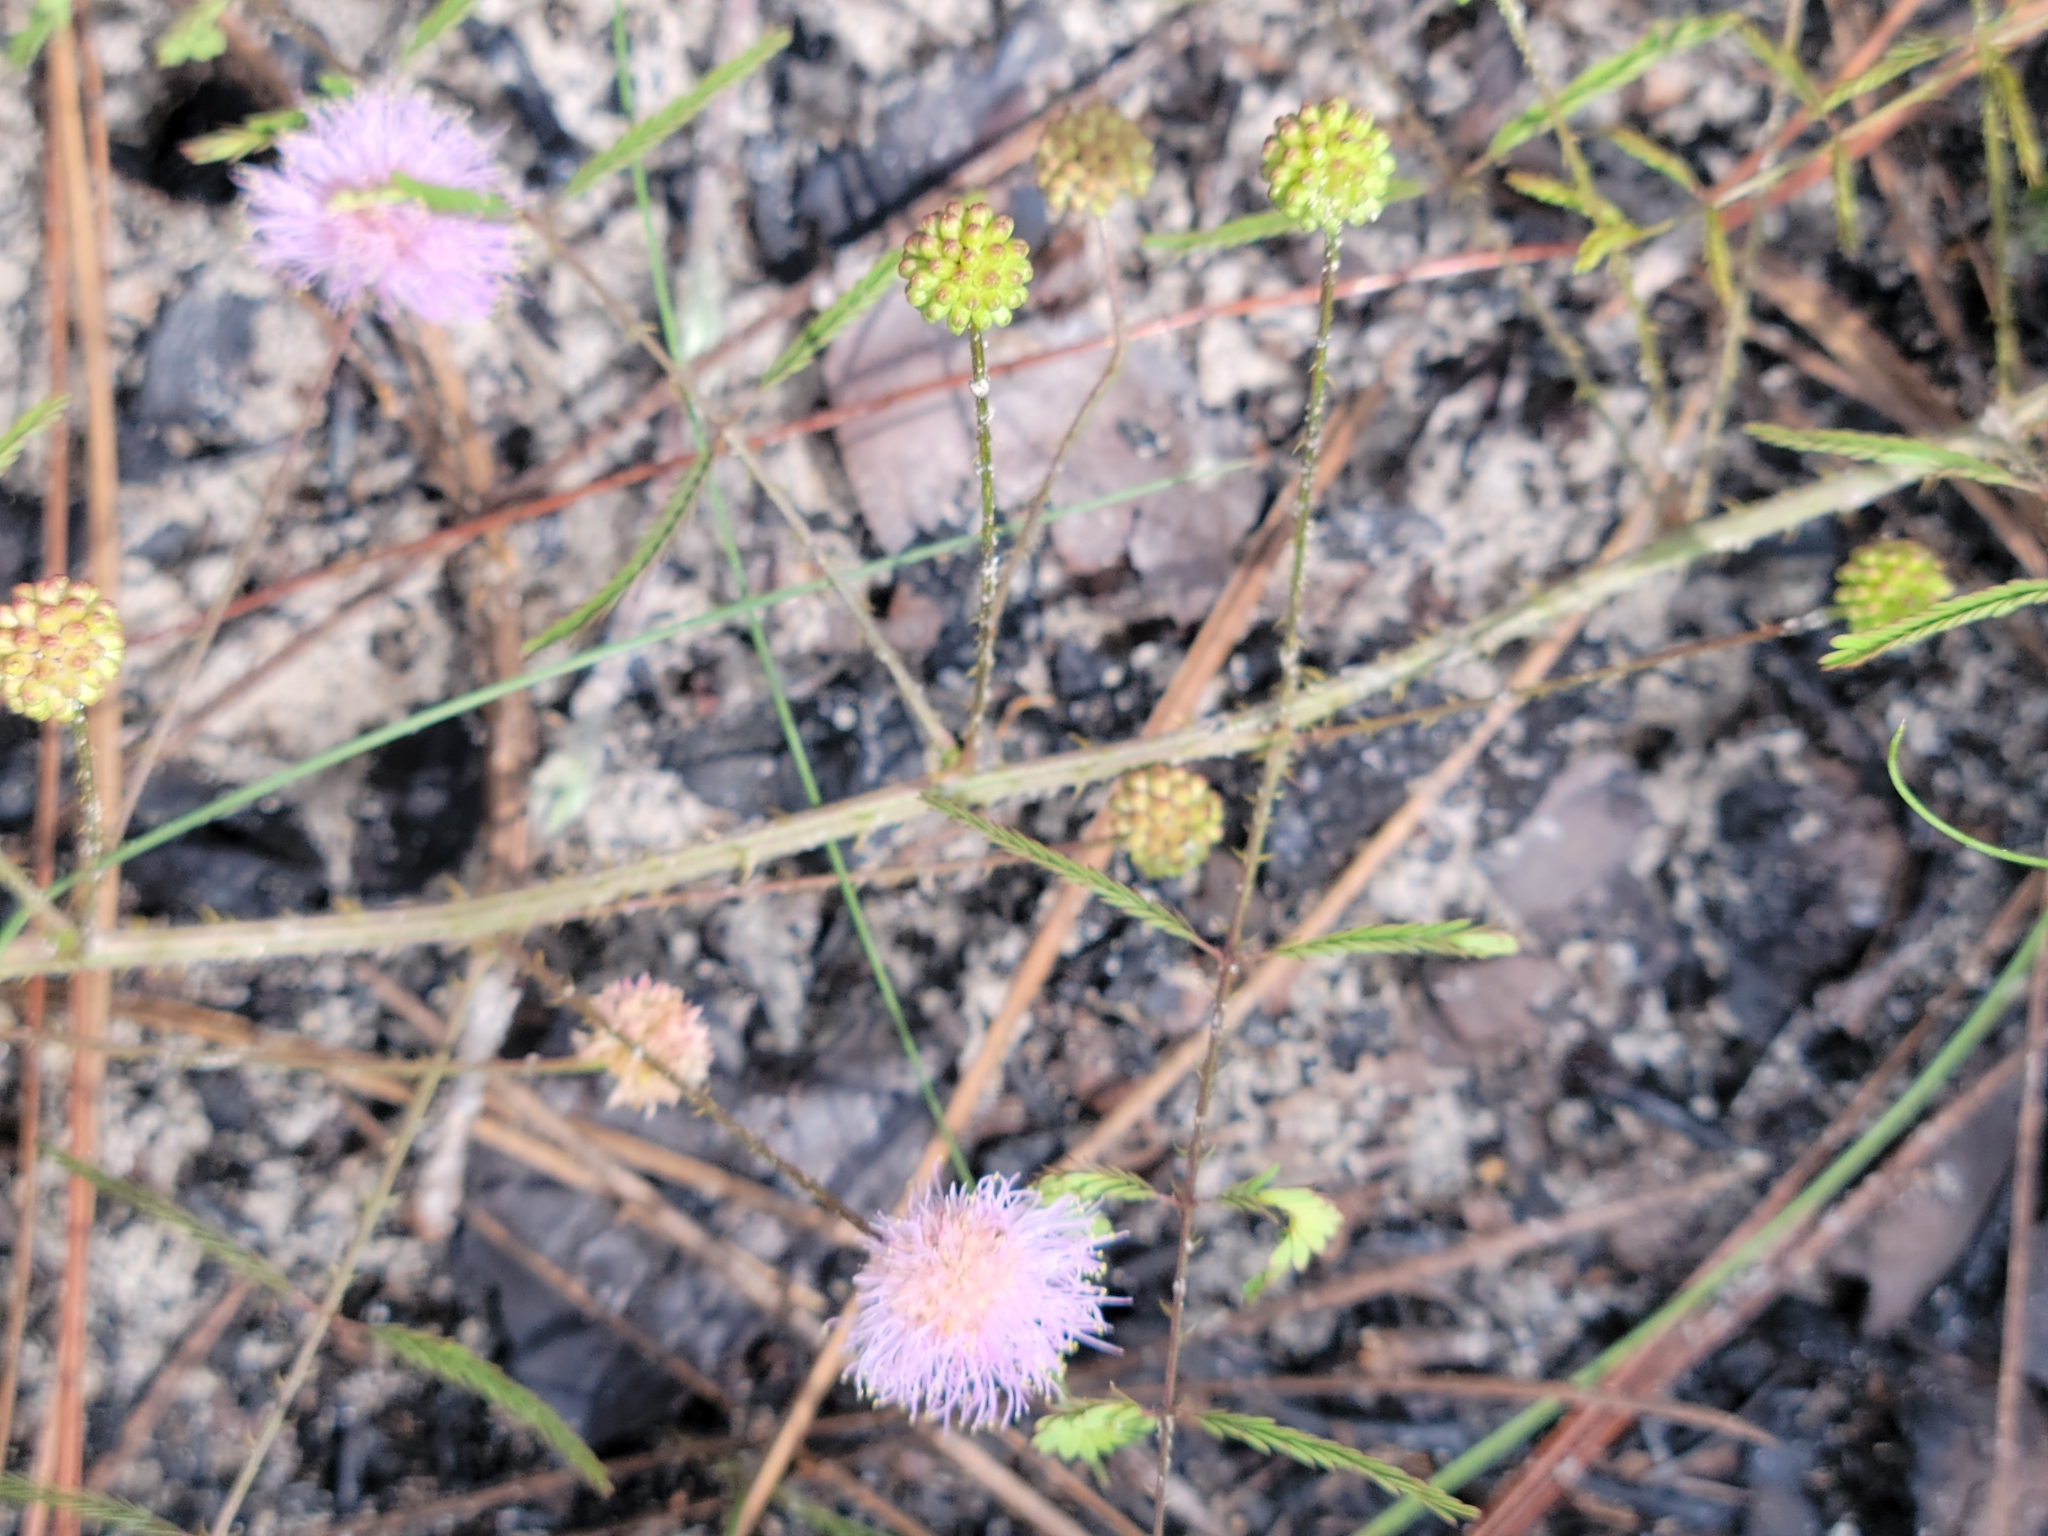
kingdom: Plantae
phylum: Tracheophyta
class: Magnoliopsida
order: Fabales
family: Fabaceae
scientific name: Fabaceae
